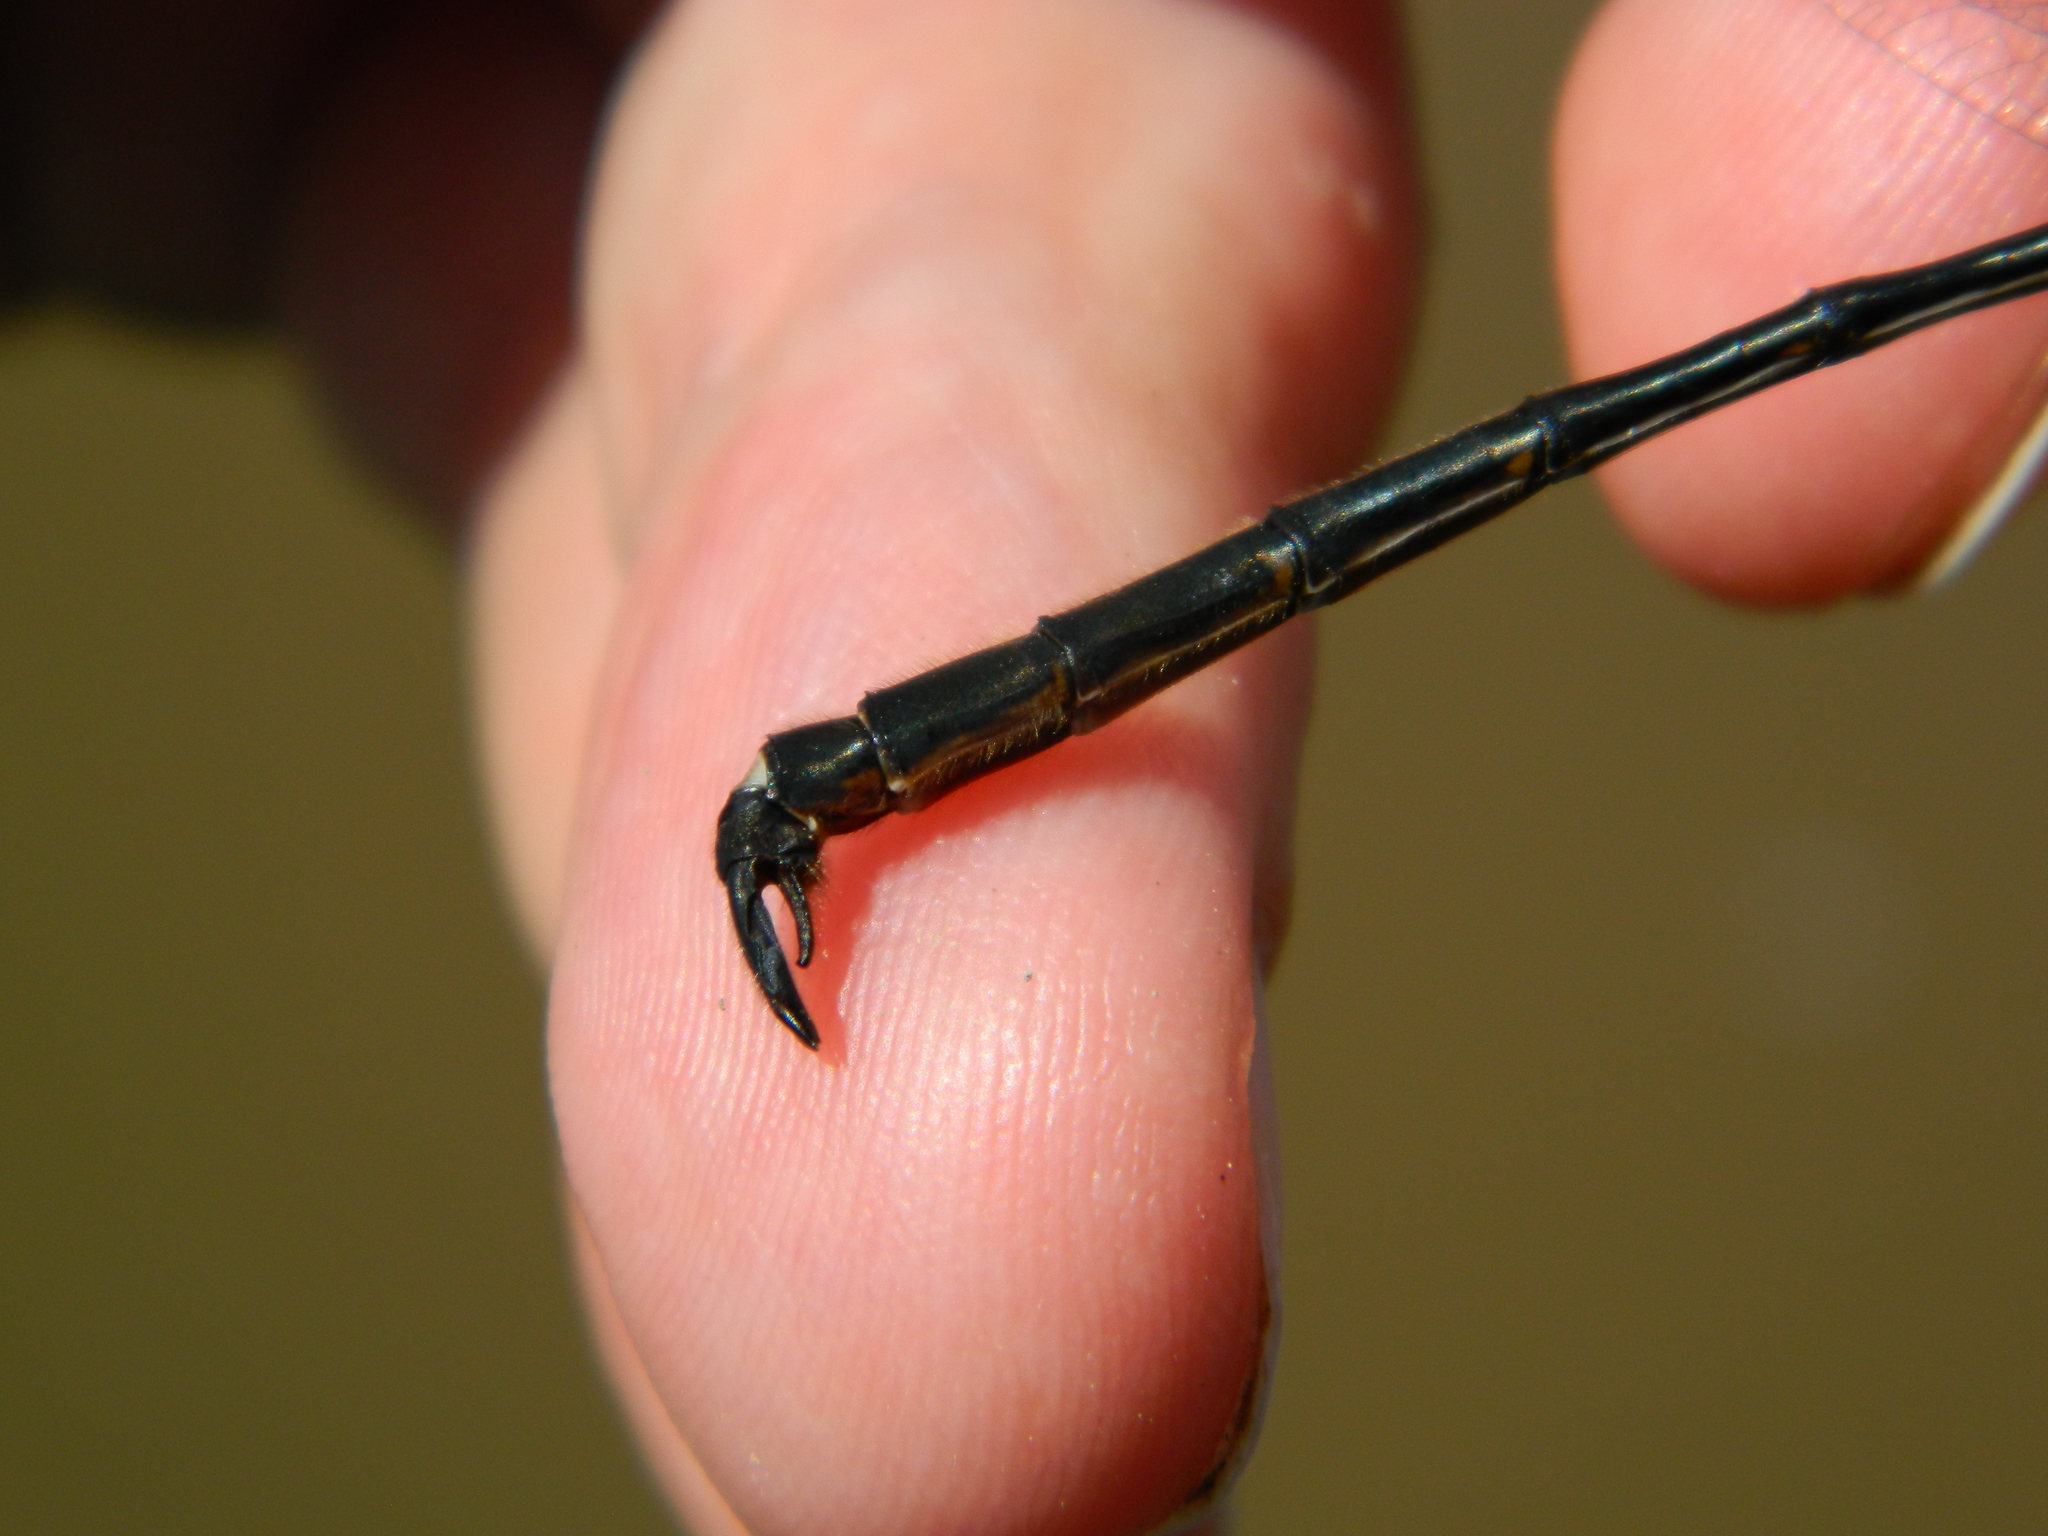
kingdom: Animalia
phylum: Arthropoda
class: Insecta
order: Odonata
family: Corduliidae
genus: Somatochlora
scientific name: Somatochlora franklini
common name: Delicate emerald
